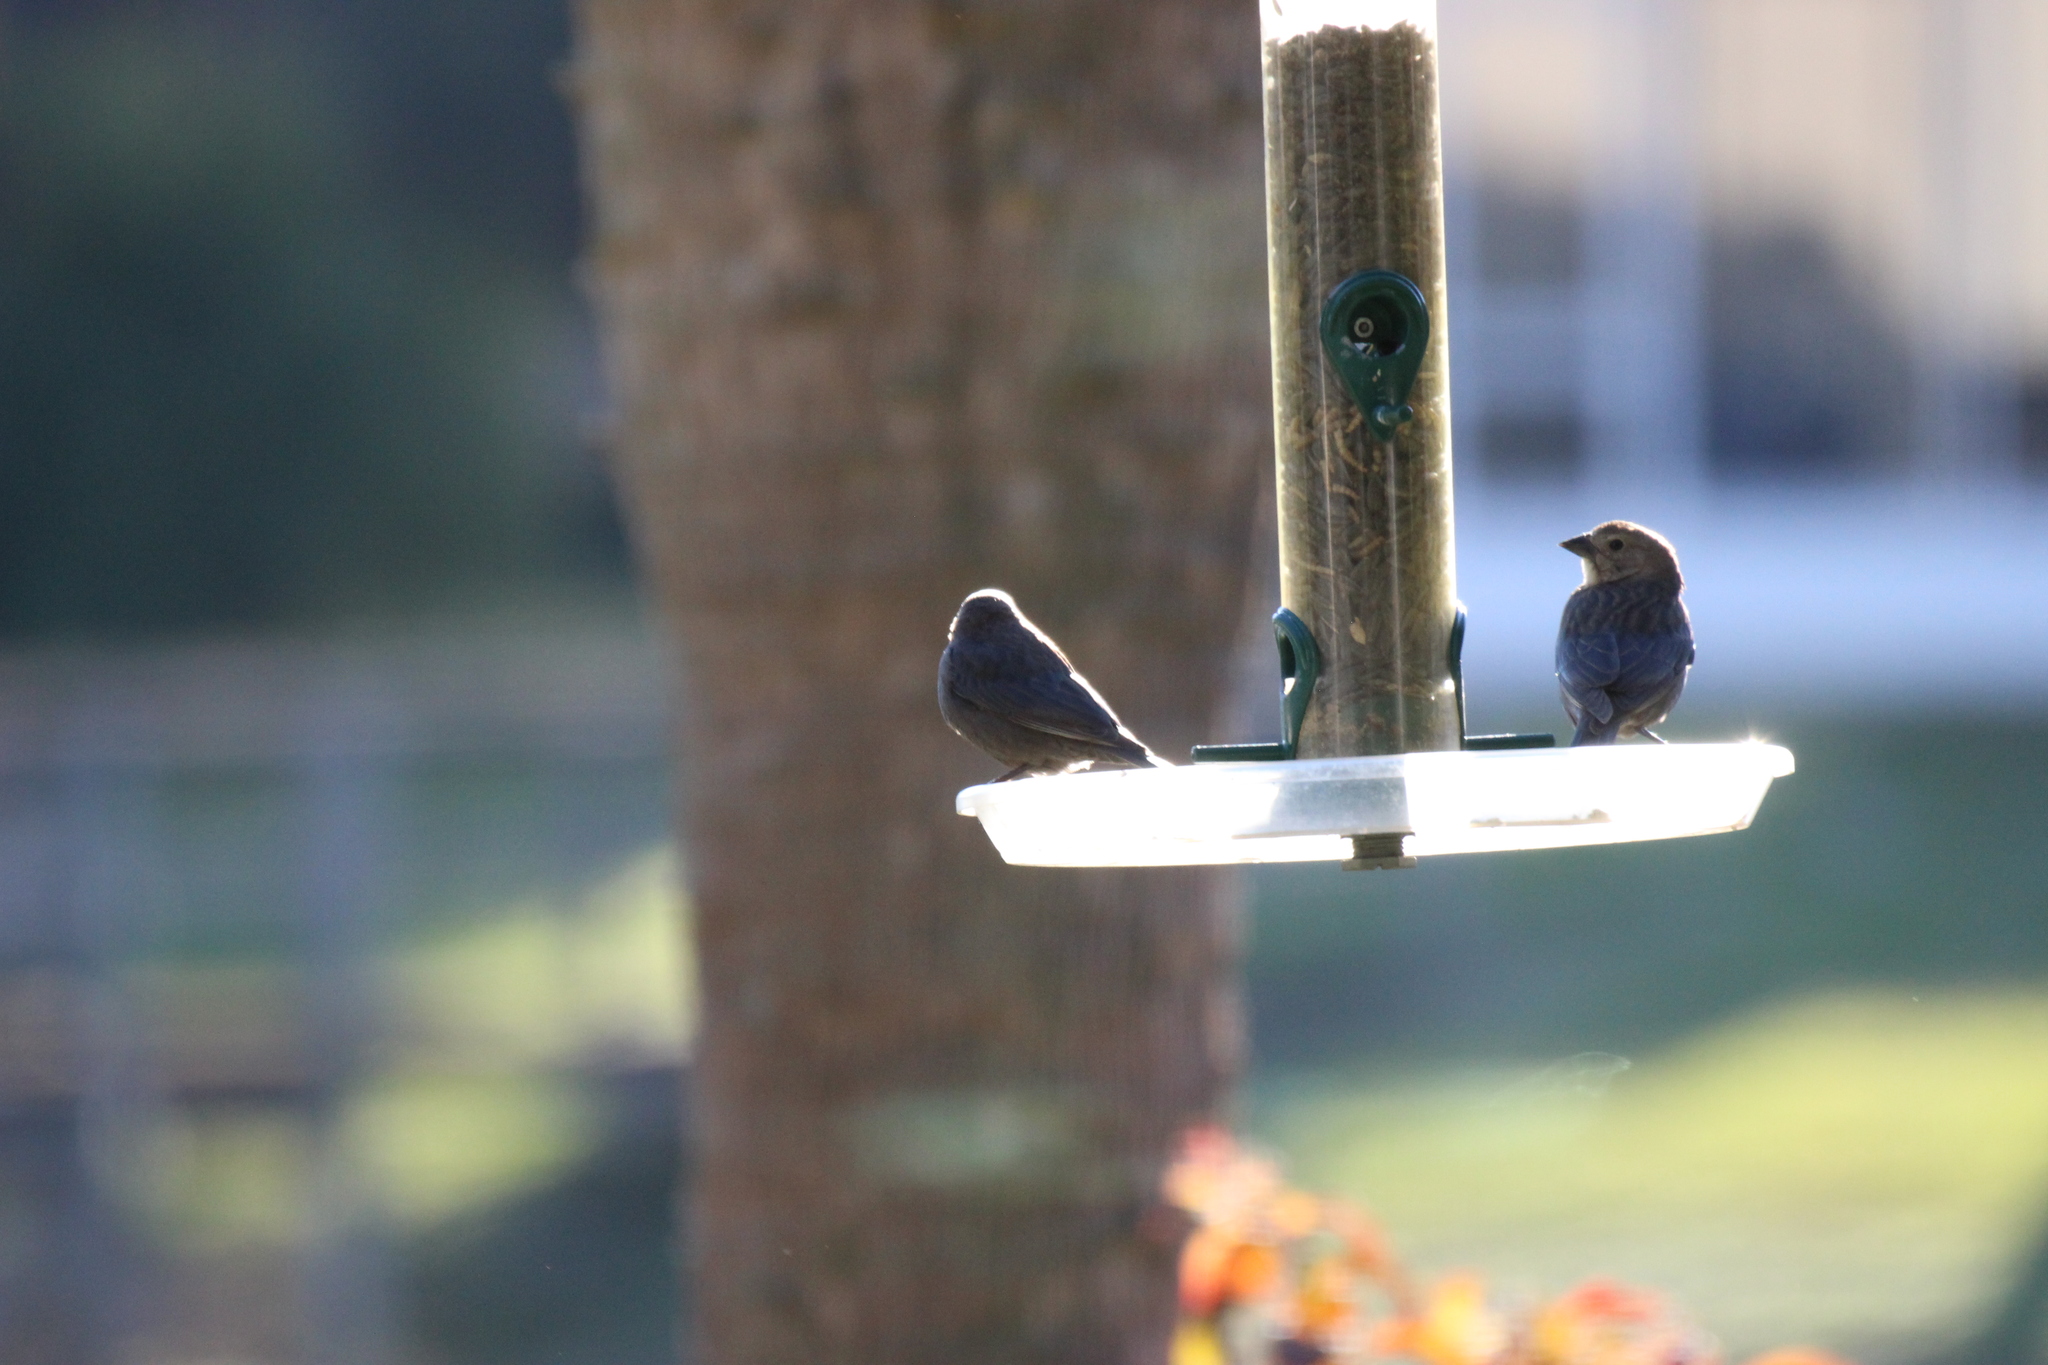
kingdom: Animalia
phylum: Chordata
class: Aves
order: Passeriformes
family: Icteridae
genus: Molothrus
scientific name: Molothrus ater
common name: Brown-headed cowbird
